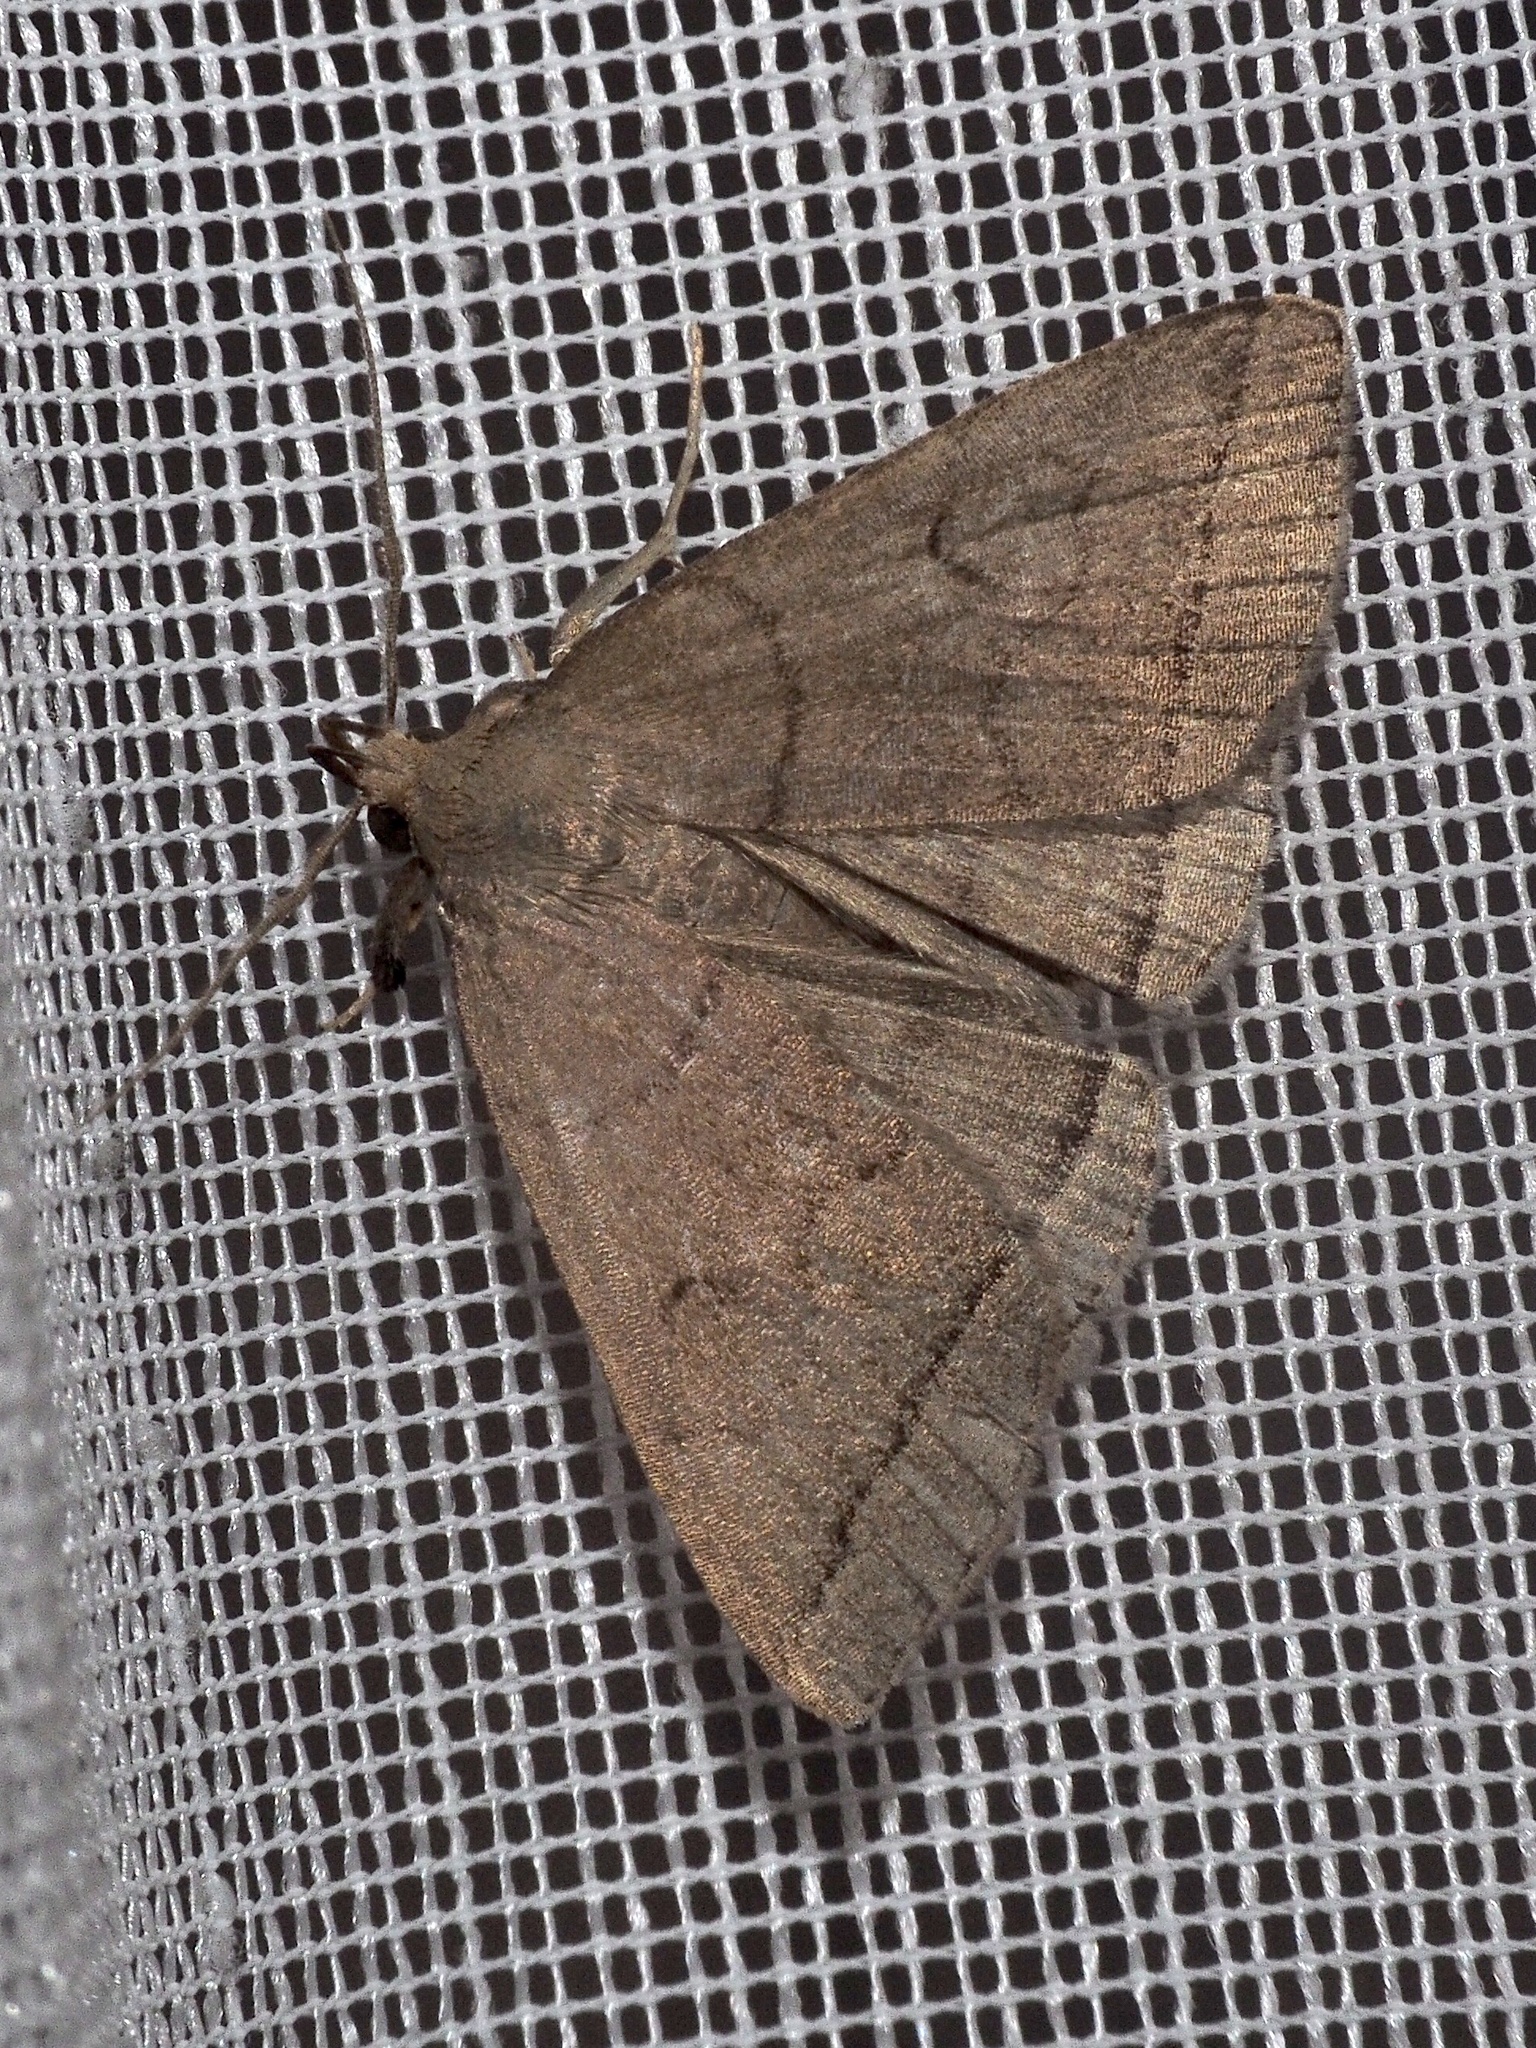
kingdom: Animalia
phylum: Arthropoda
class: Insecta
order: Lepidoptera
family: Erebidae
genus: Herminia
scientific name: Herminia tarsipennalis
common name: Fan-foot
